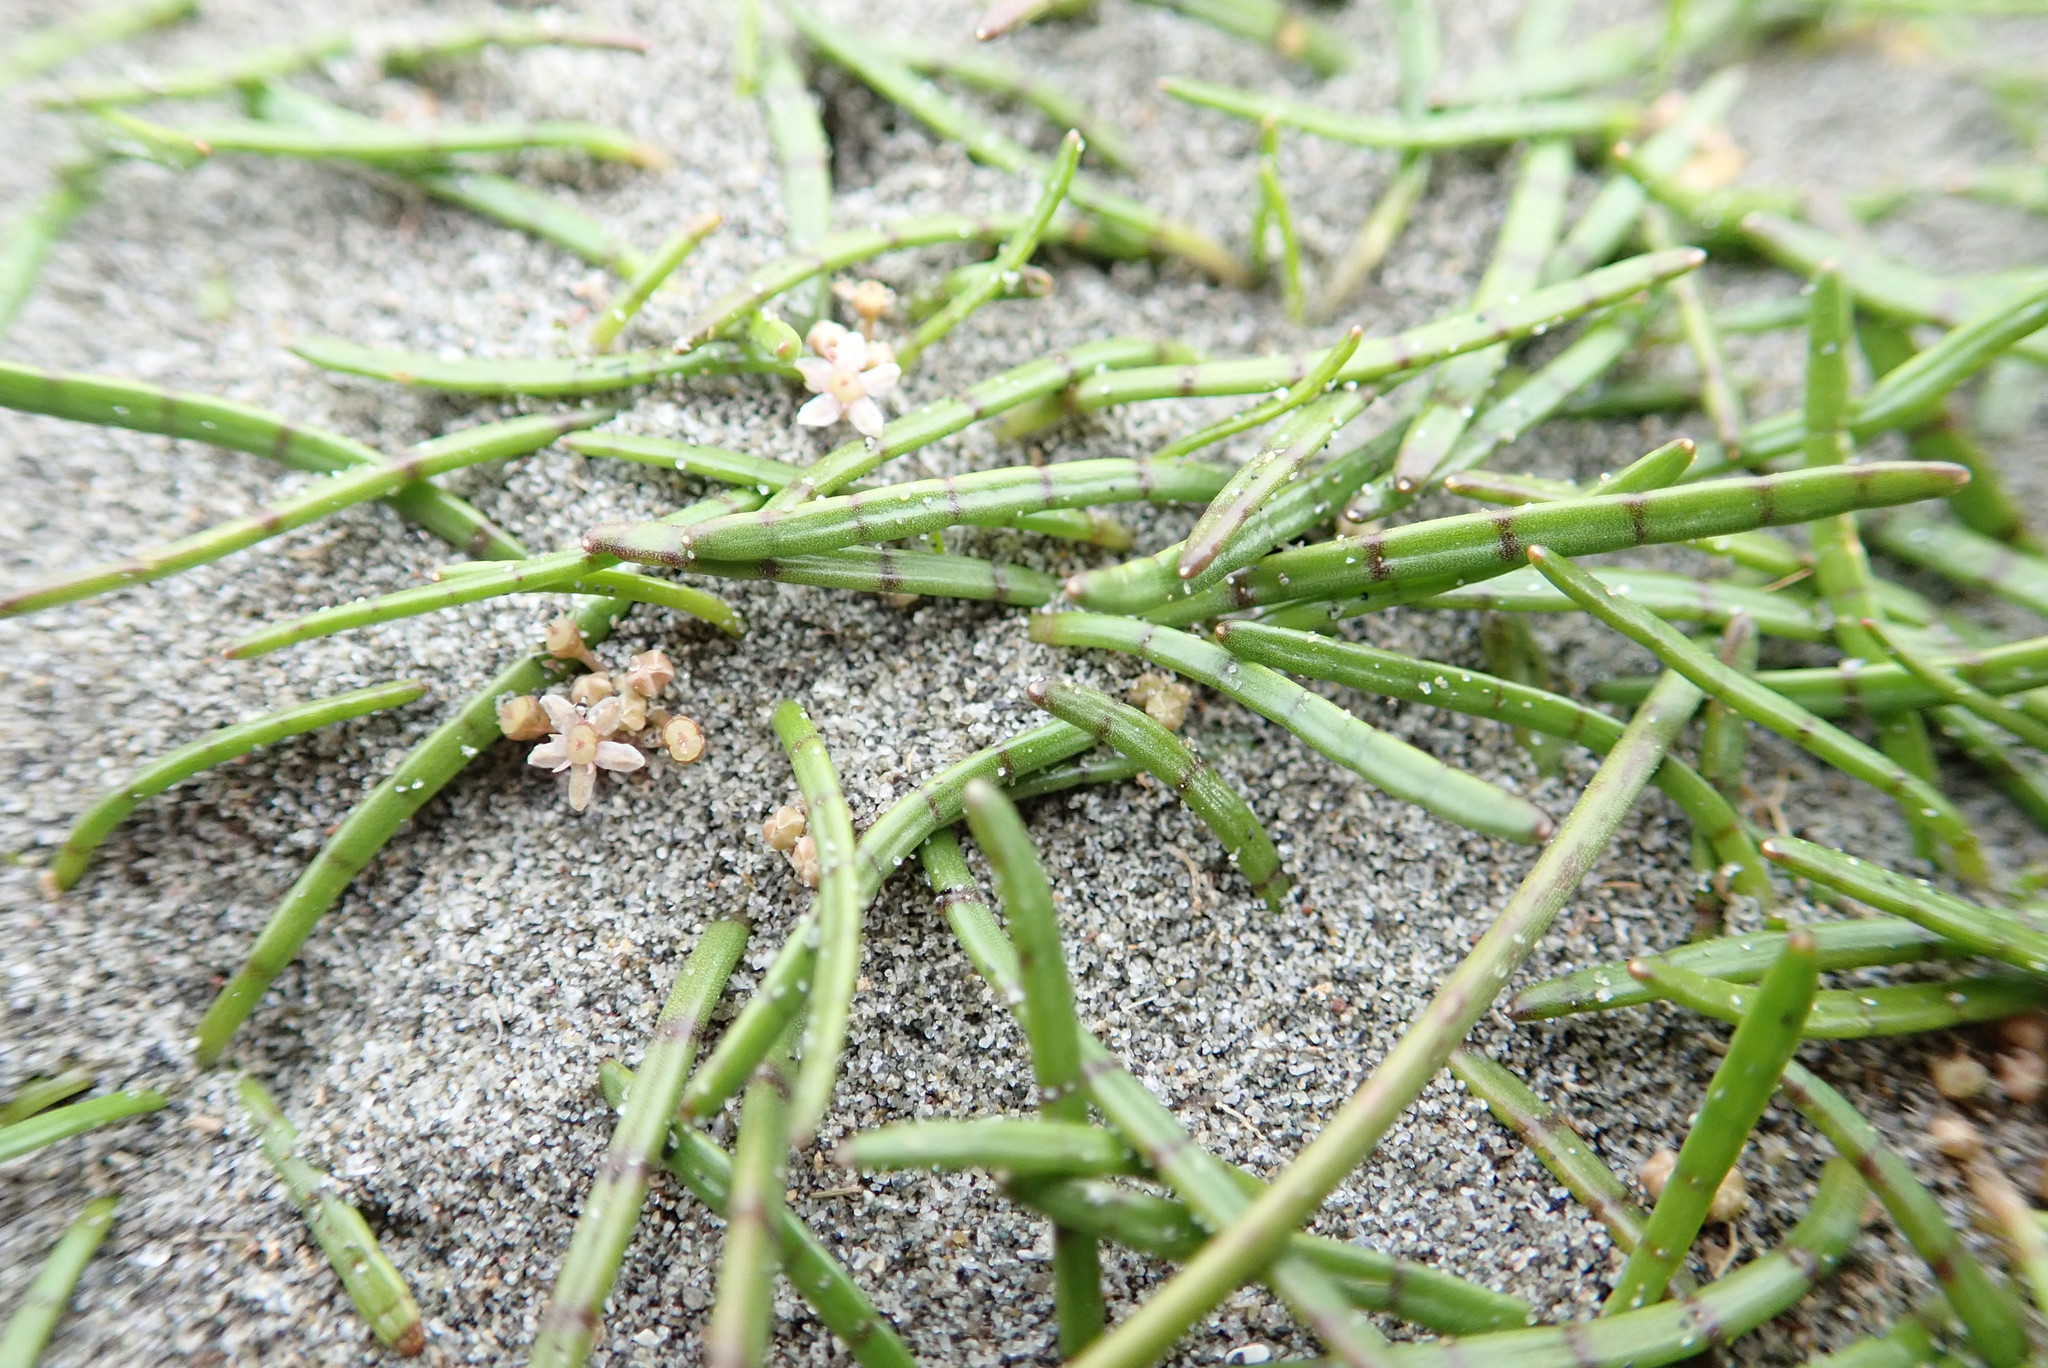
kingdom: Plantae
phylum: Tracheophyta
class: Magnoliopsida
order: Apiales
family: Apiaceae
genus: Lilaeopsis
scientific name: Lilaeopsis novae-zelandiae
